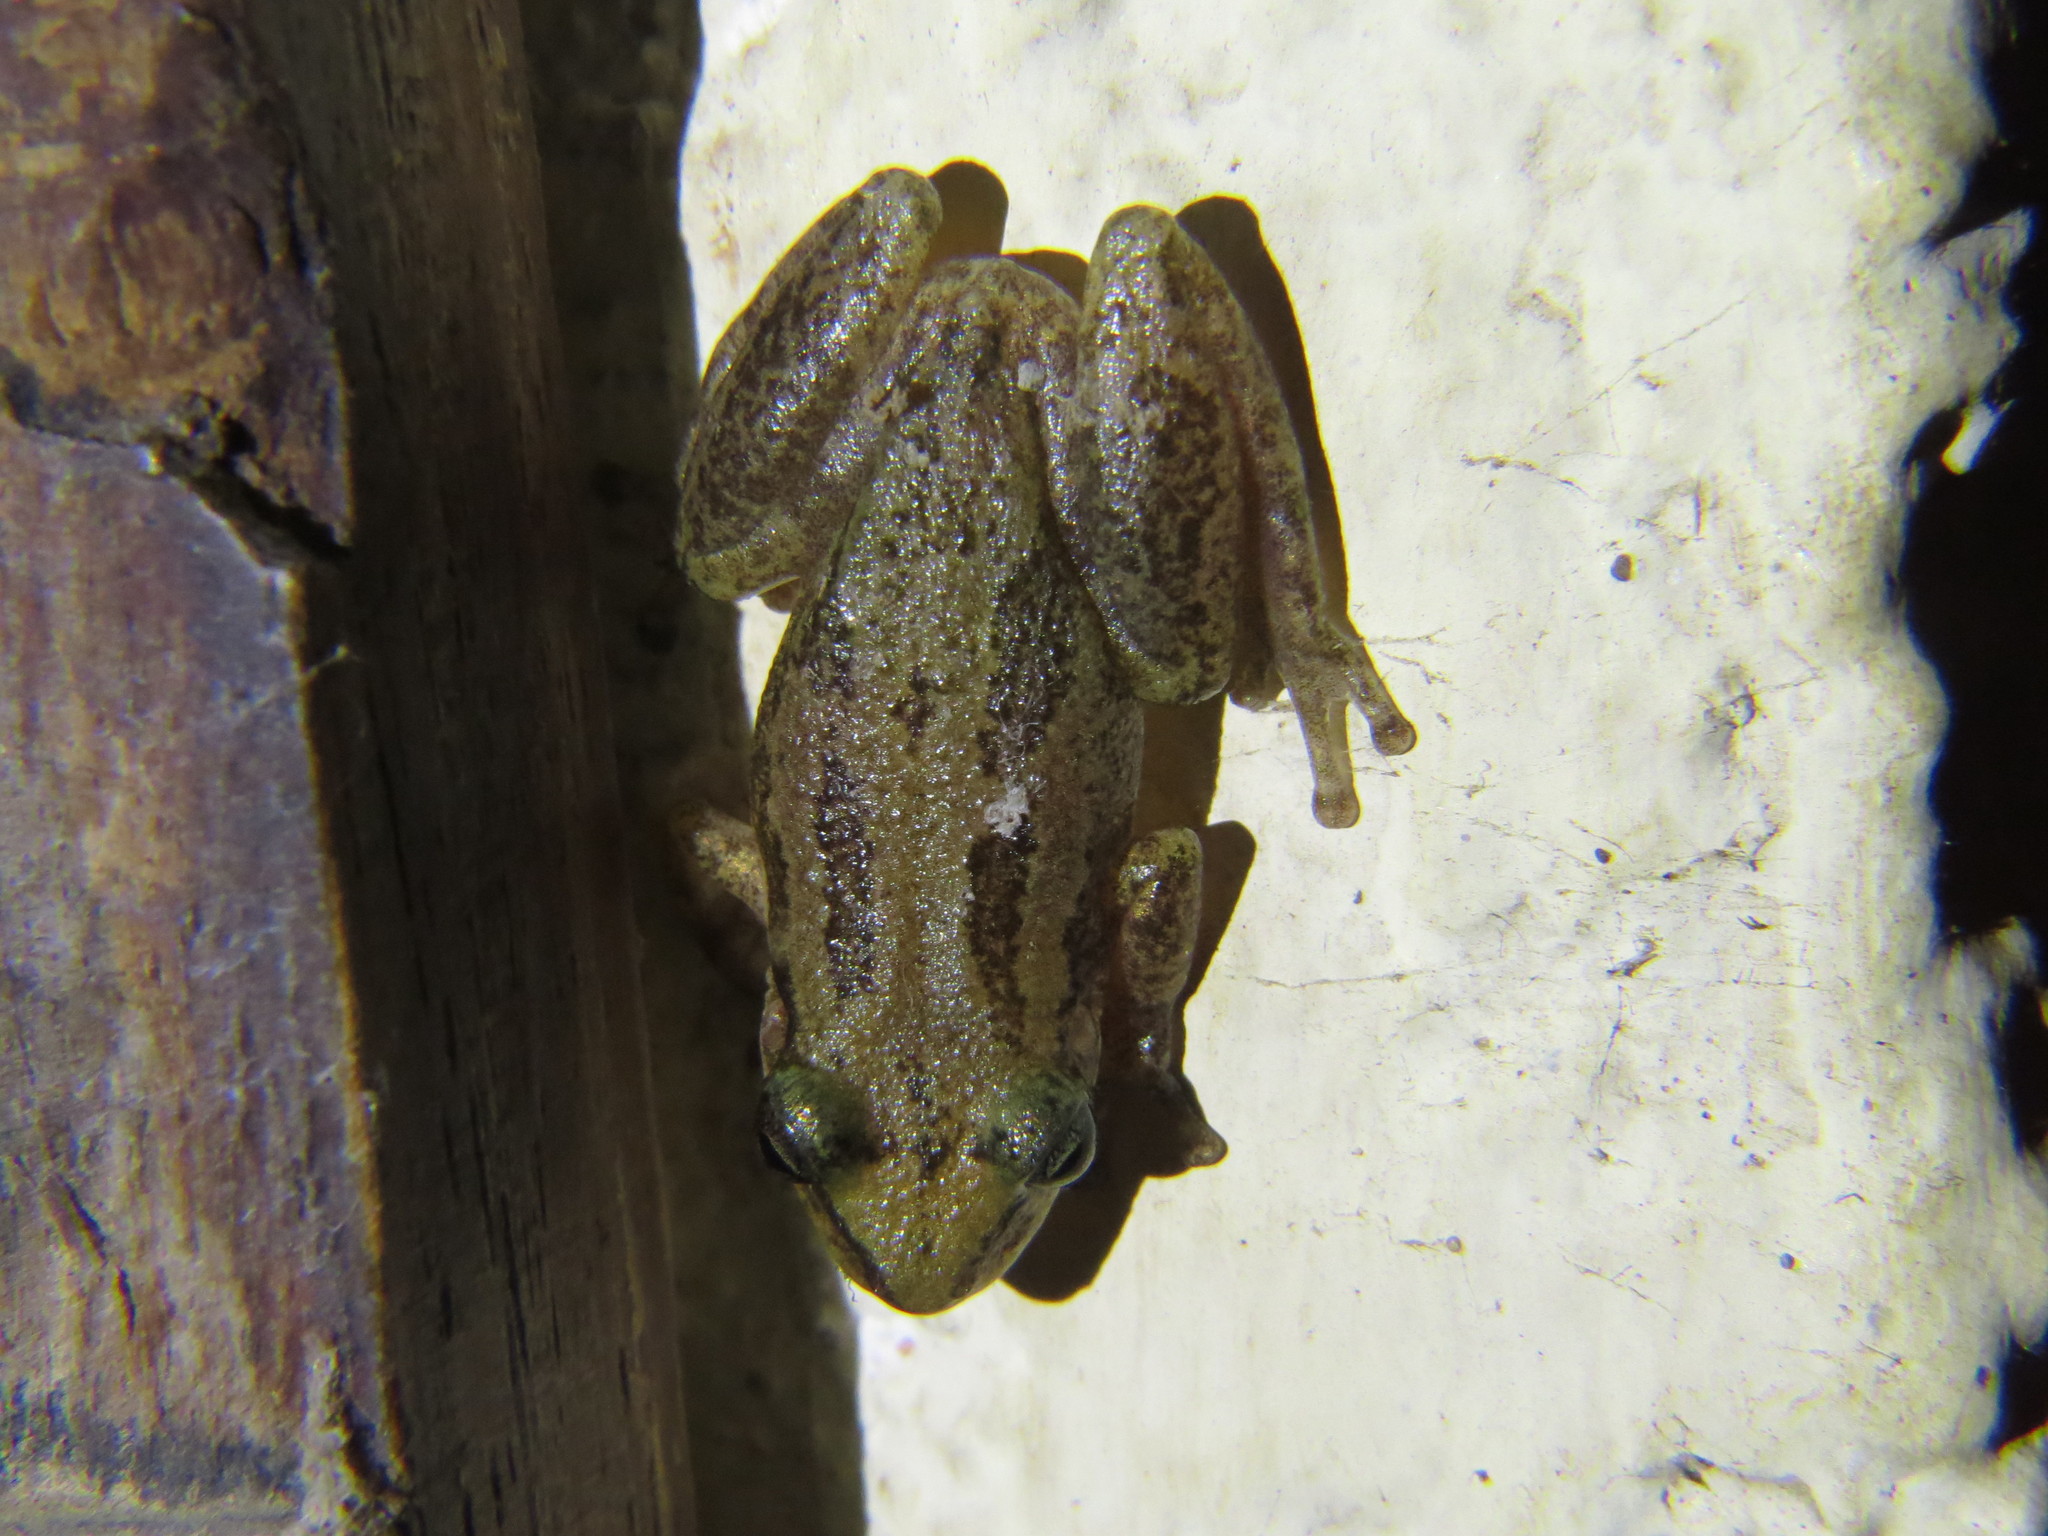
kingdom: Animalia
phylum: Chordata
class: Amphibia
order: Anura
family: Hylidae
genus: Scinax
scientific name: Scinax staufferi
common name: Stauffer's long-nosed treefrog
